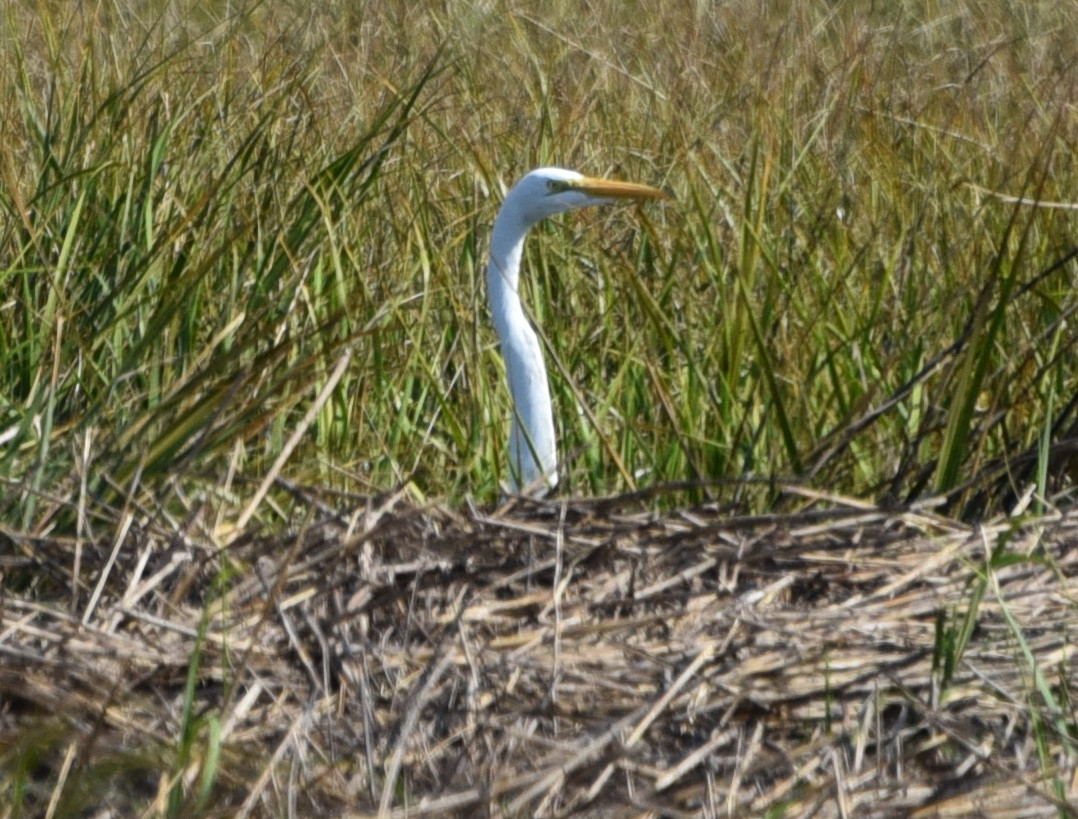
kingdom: Animalia
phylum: Chordata
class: Aves
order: Pelecaniformes
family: Ardeidae
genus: Ardea
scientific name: Ardea alba
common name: Great egret
